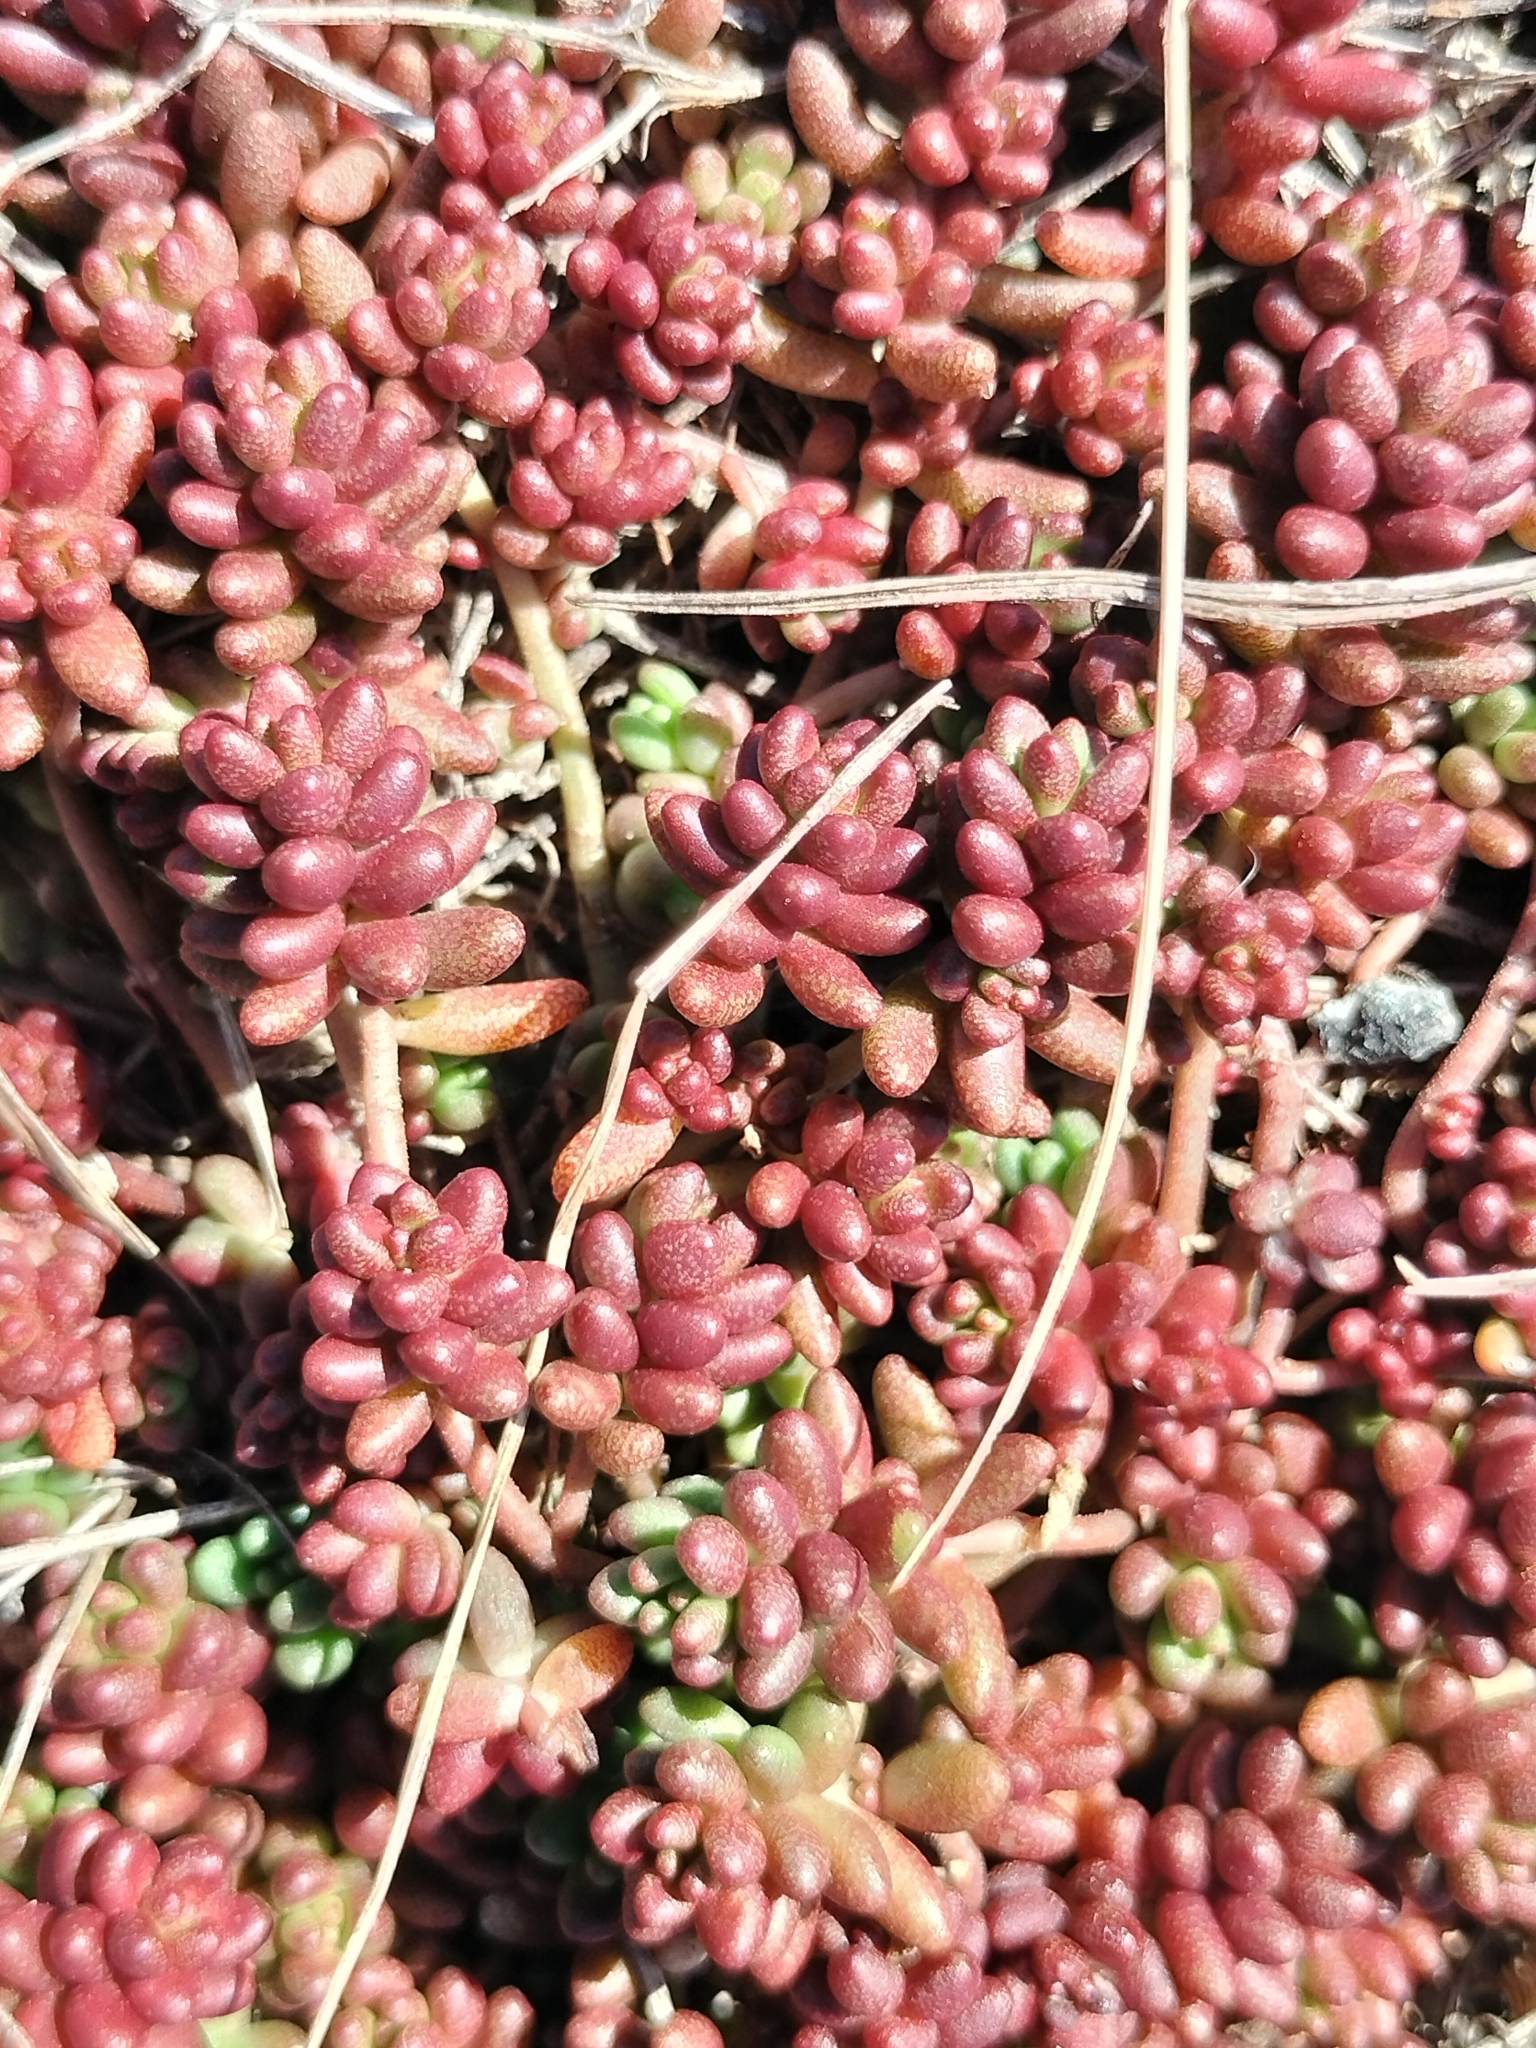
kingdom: Plantae
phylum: Tracheophyta
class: Magnoliopsida
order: Saxifragales
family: Crassulaceae
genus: Sedum
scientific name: Sedum album
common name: White stonecrop
